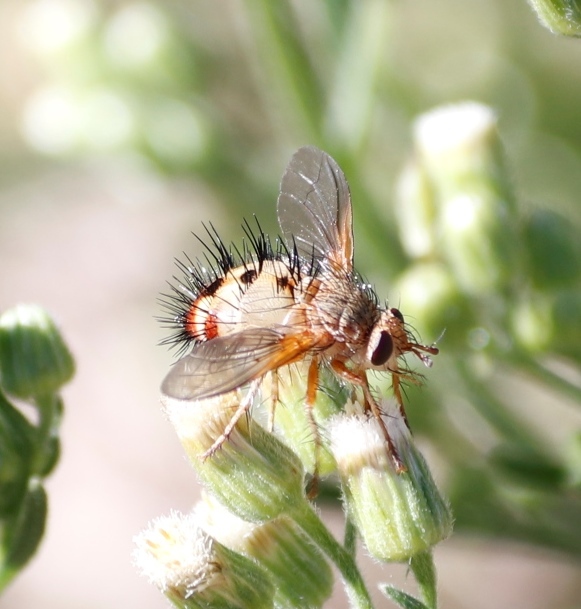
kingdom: Animalia
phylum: Arthropoda
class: Insecta
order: Diptera
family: Tachinidae
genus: Dejeania
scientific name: Dejeania bombylans
